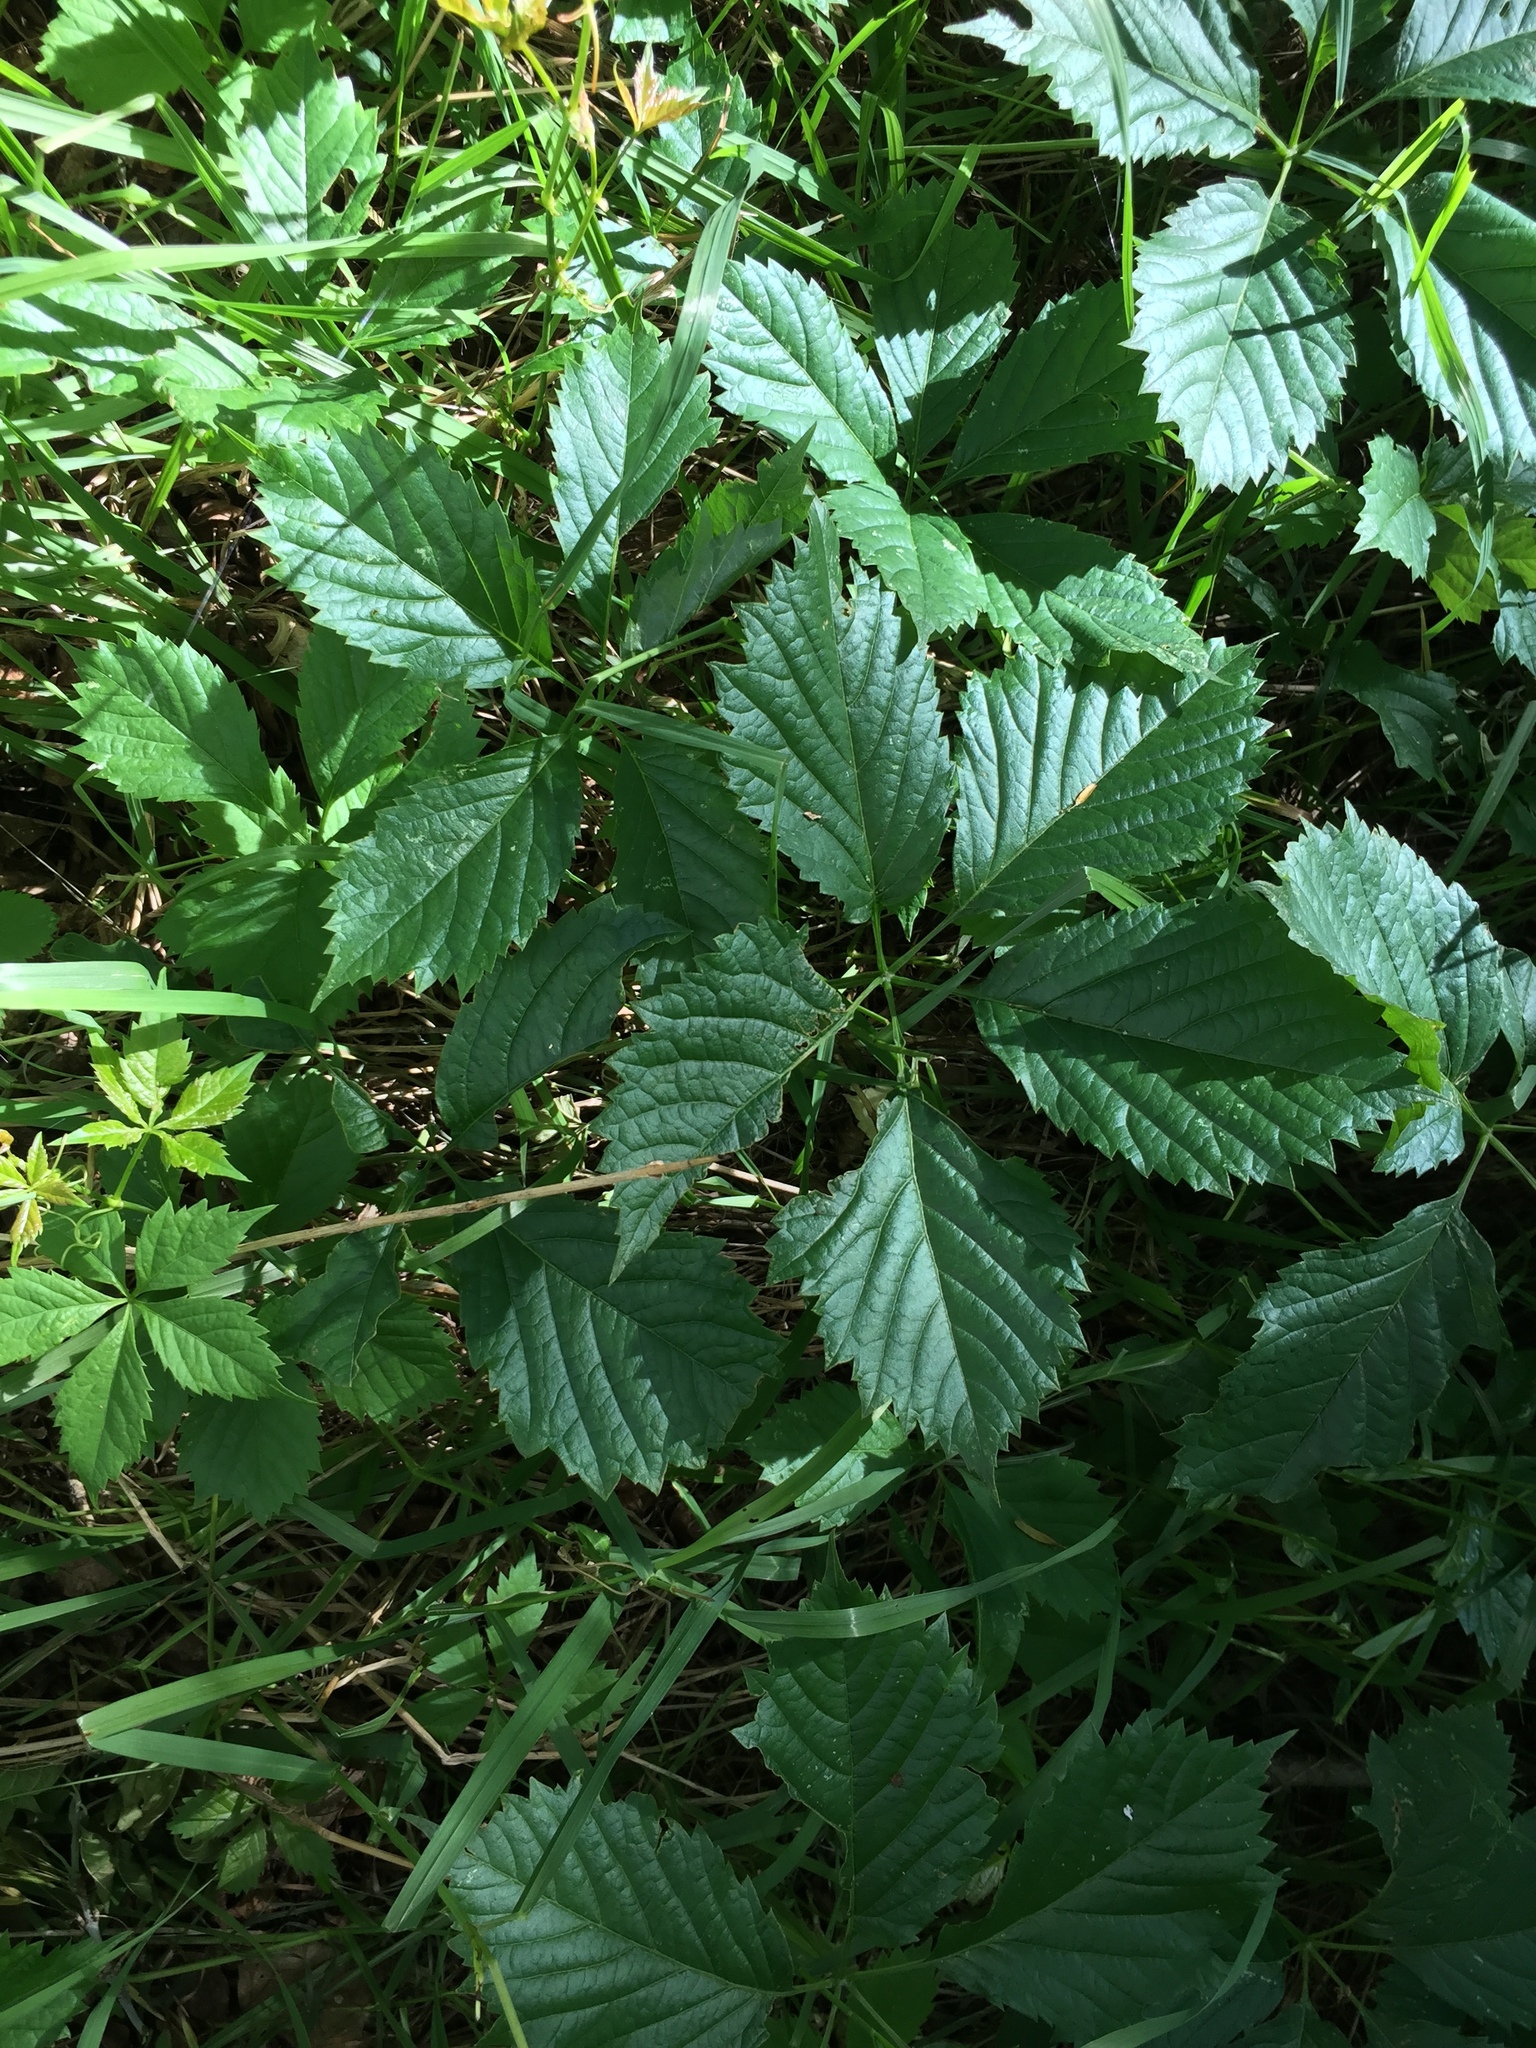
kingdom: Plantae
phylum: Tracheophyta
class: Magnoliopsida
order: Vitales
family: Vitaceae
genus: Parthenocissus
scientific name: Parthenocissus quinquefolia
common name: Virginia-creeper
